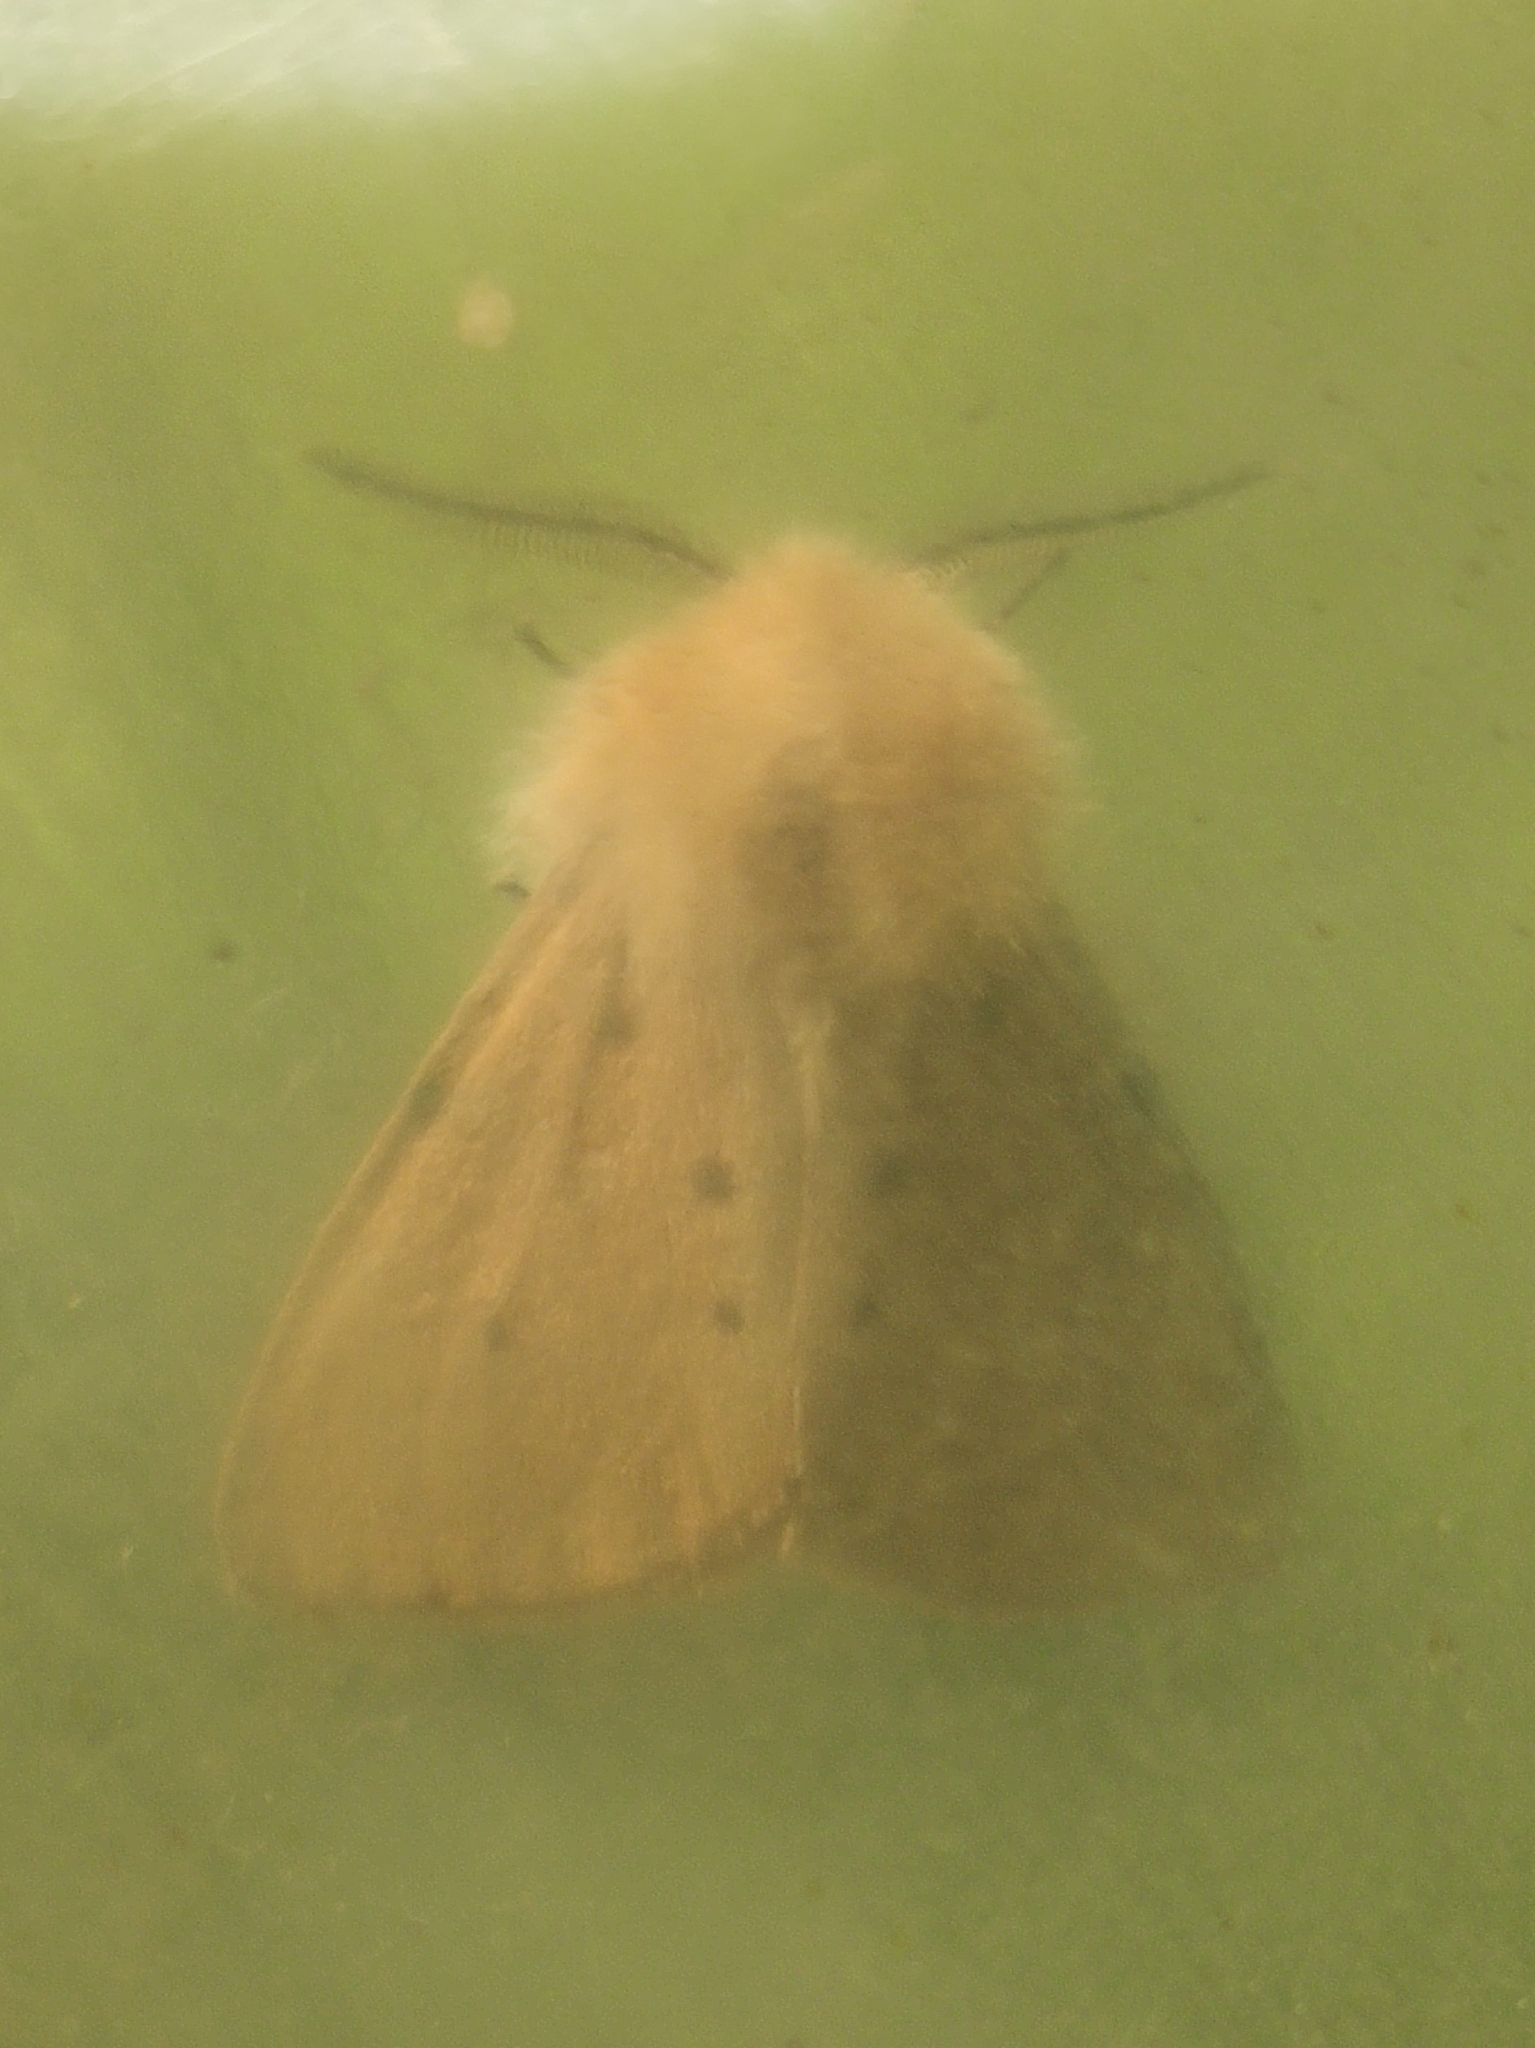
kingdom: Animalia
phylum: Arthropoda
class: Insecta
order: Lepidoptera
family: Erebidae
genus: Diaphora
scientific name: Diaphora mendica
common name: Muslin moth
